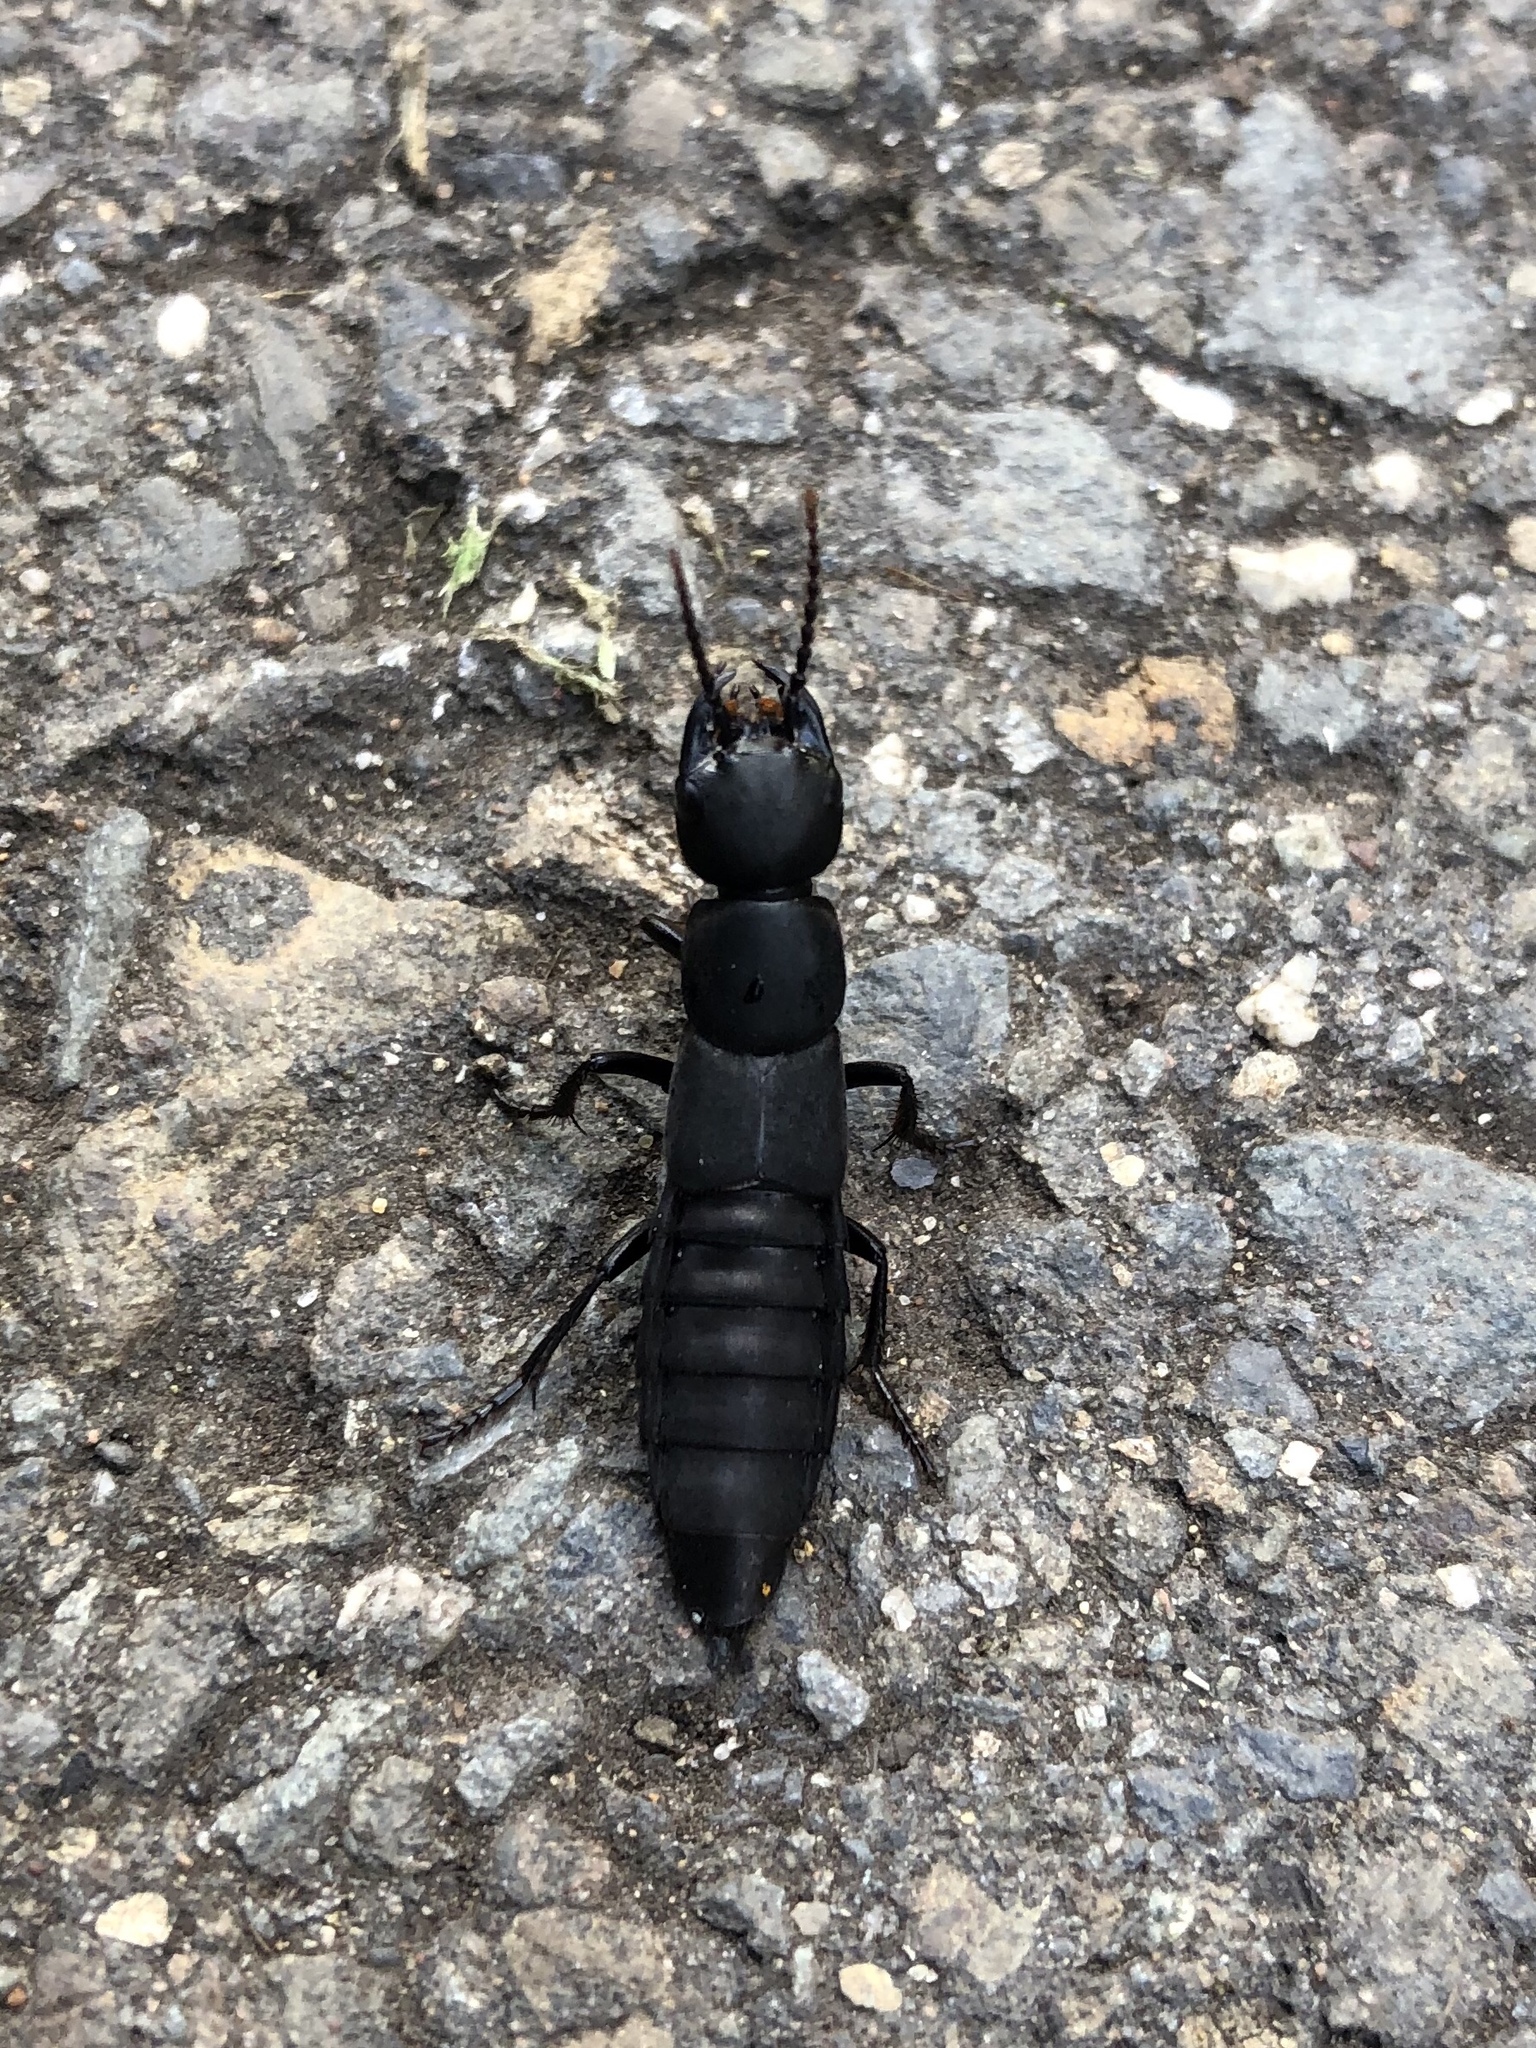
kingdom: Animalia
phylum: Arthropoda
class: Insecta
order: Coleoptera
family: Staphylinidae
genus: Ocypus
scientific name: Ocypus olens
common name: Devil's coach-horse
